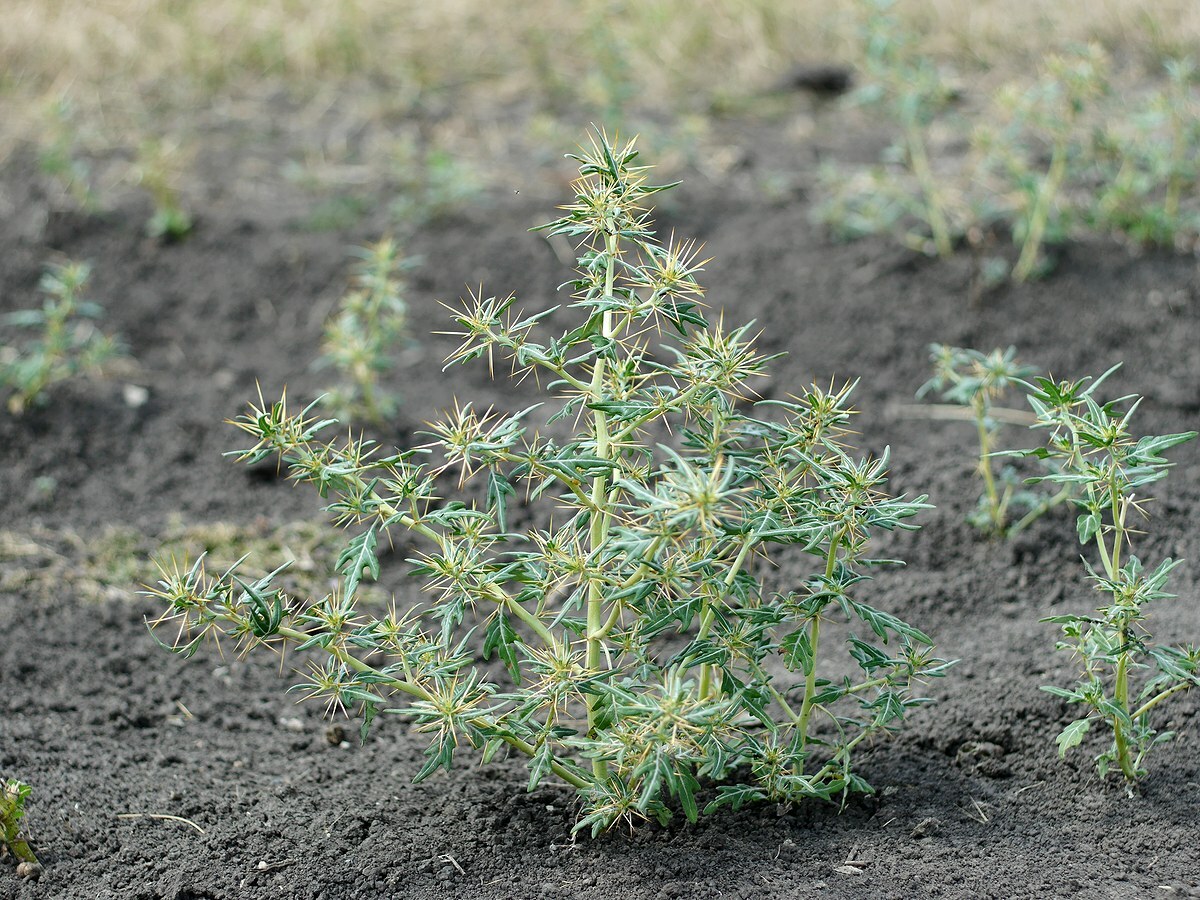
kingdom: Plantae
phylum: Tracheophyta
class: Magnoliopsida
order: Asterales
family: Asteraceae
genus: Xanthium
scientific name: Xanthium spinosum
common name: Spiny cocklebur
